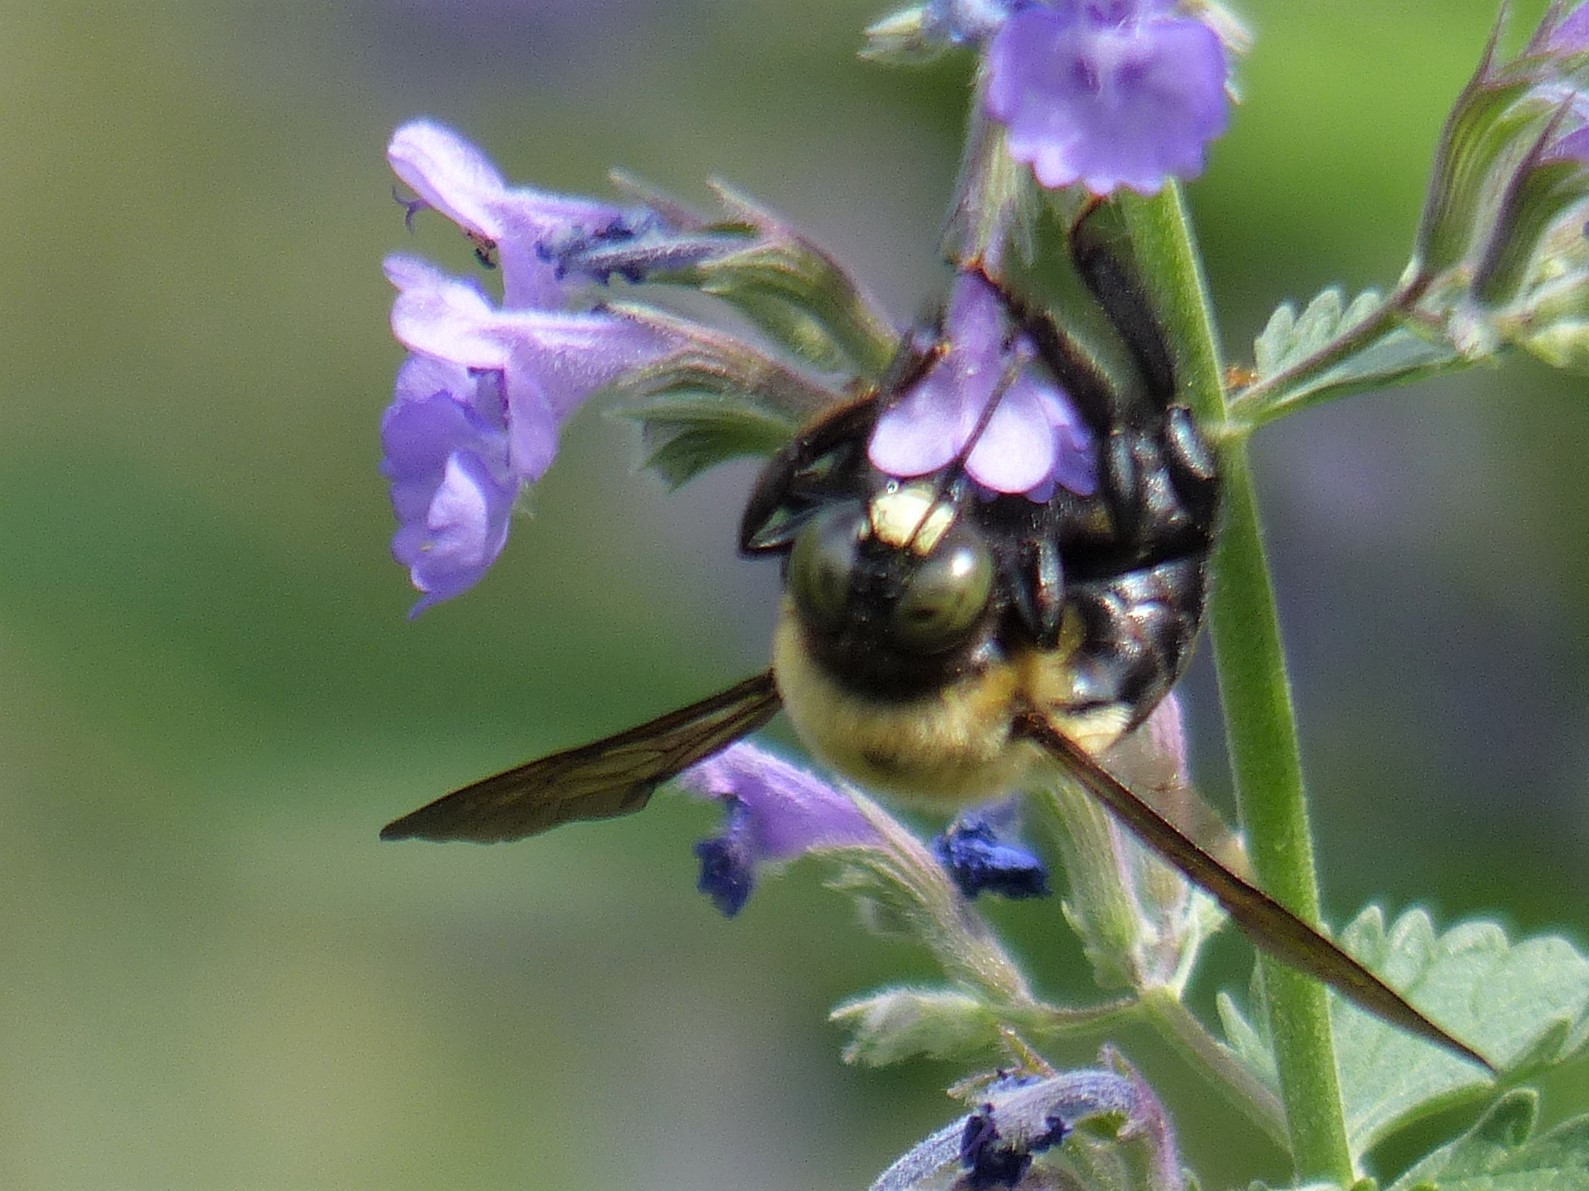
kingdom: Animalia
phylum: Arthropoda
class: Insecta
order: Hymenoptera
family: Apidae
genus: Xylocopa
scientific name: Xylocopa virginica
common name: Carpenter bee
